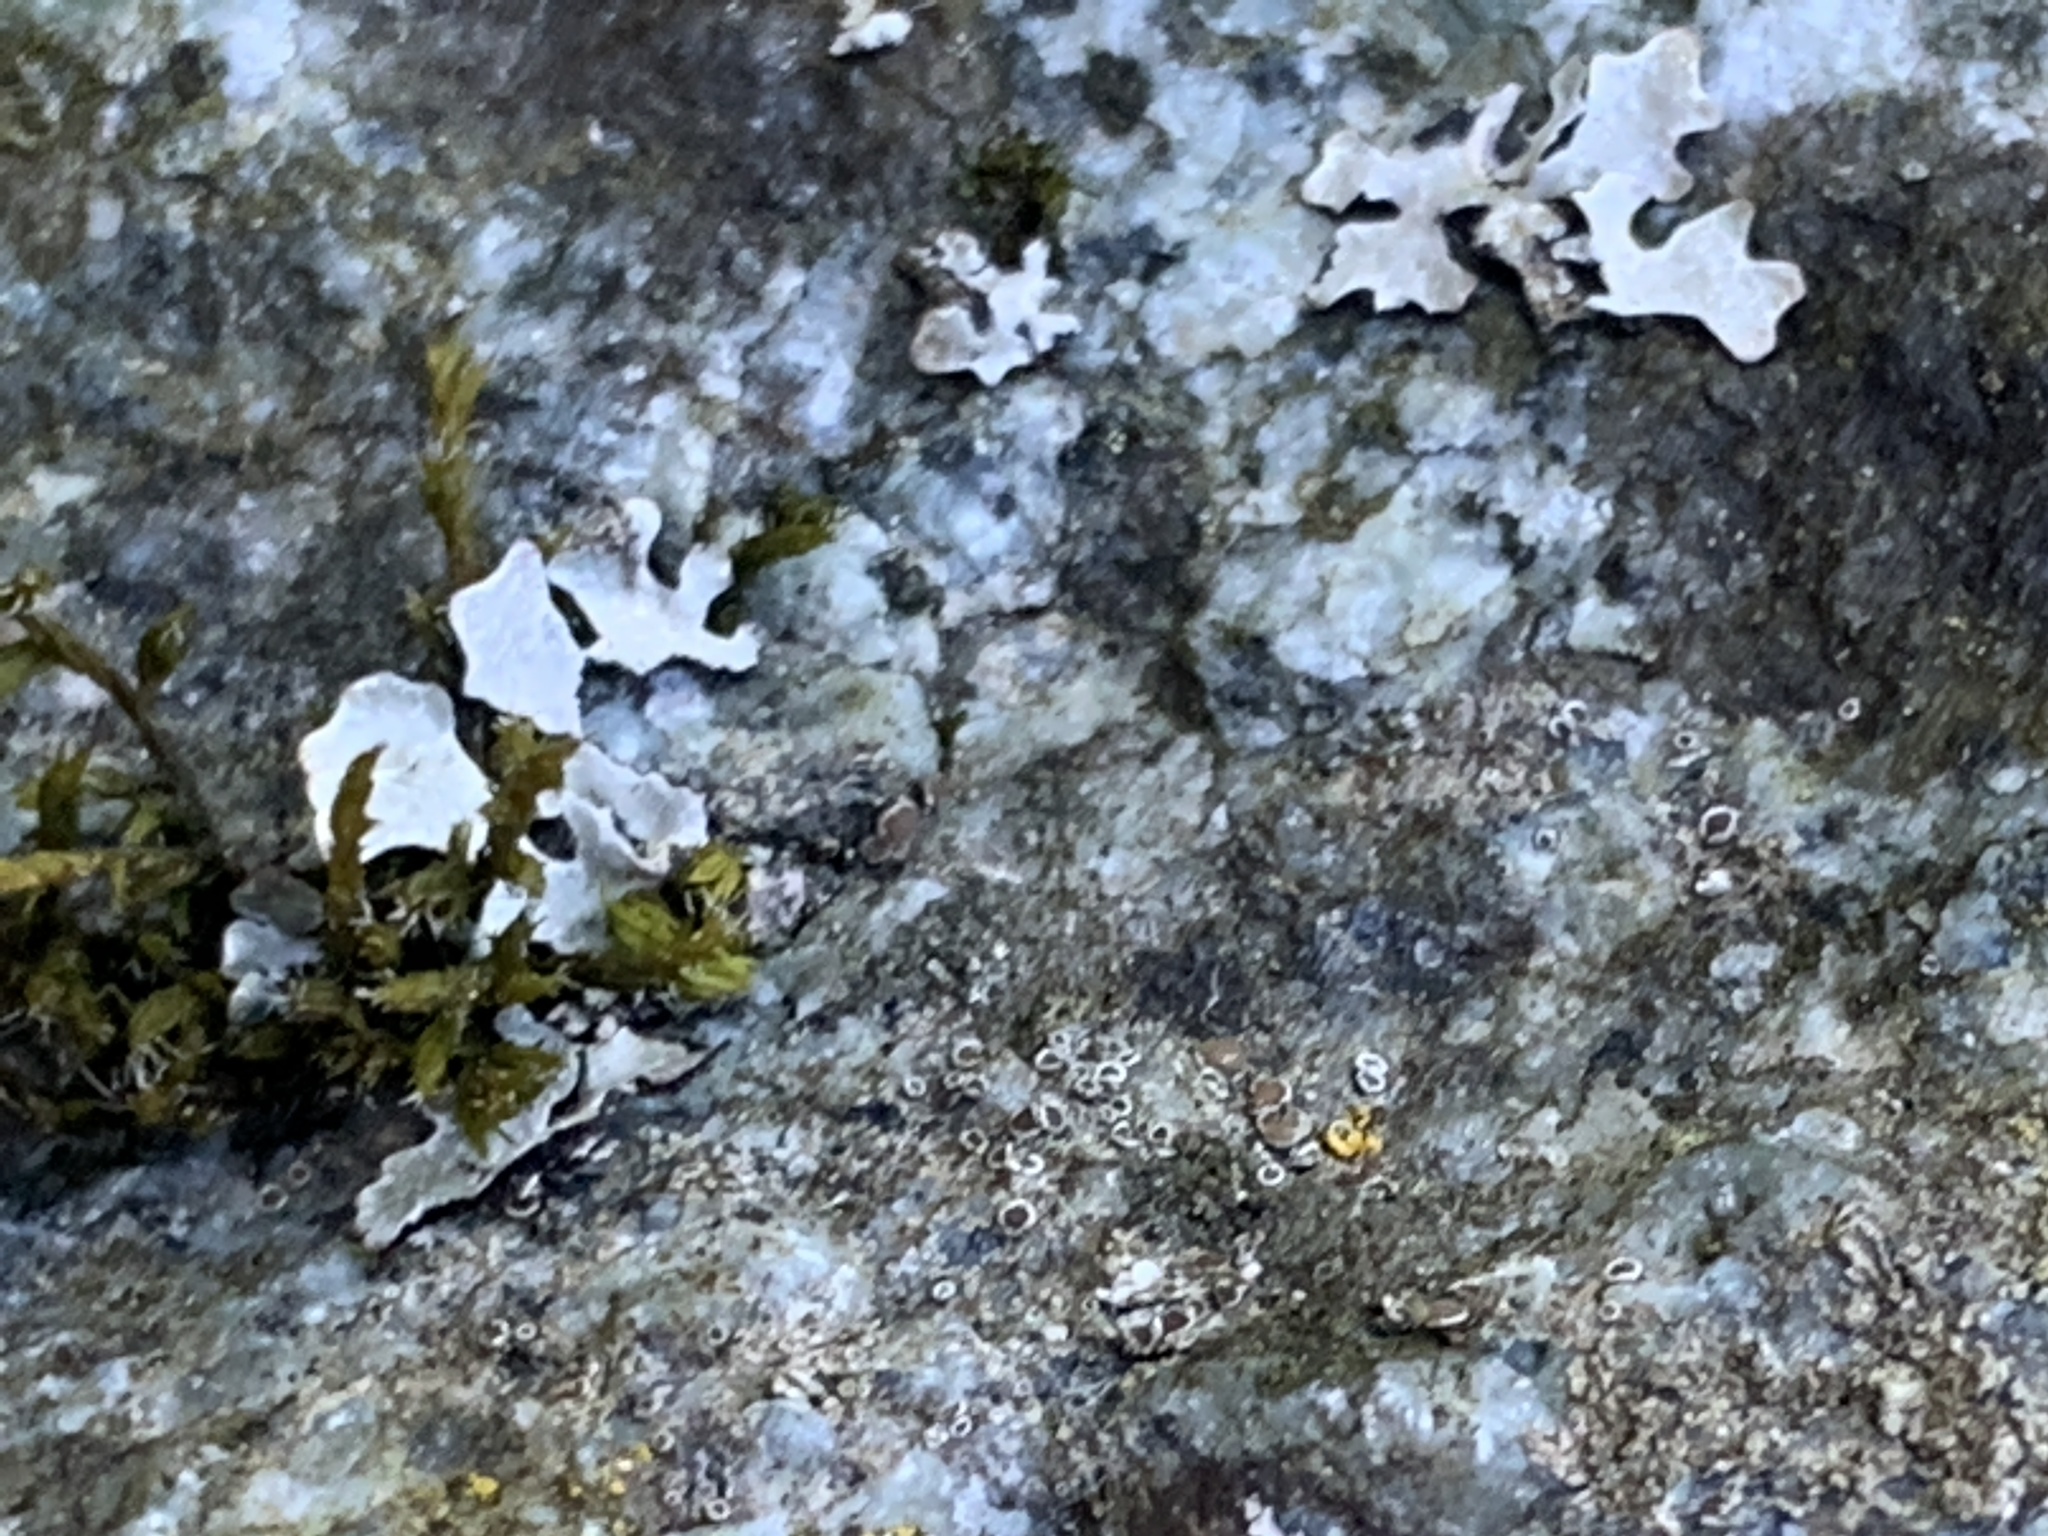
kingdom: Fungi
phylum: Ascomycota
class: Lecanoromycetes
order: Lecanorales
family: Parmeliaceae
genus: Parmelia
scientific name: Parmelia sulcata
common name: Netted shield lichen
